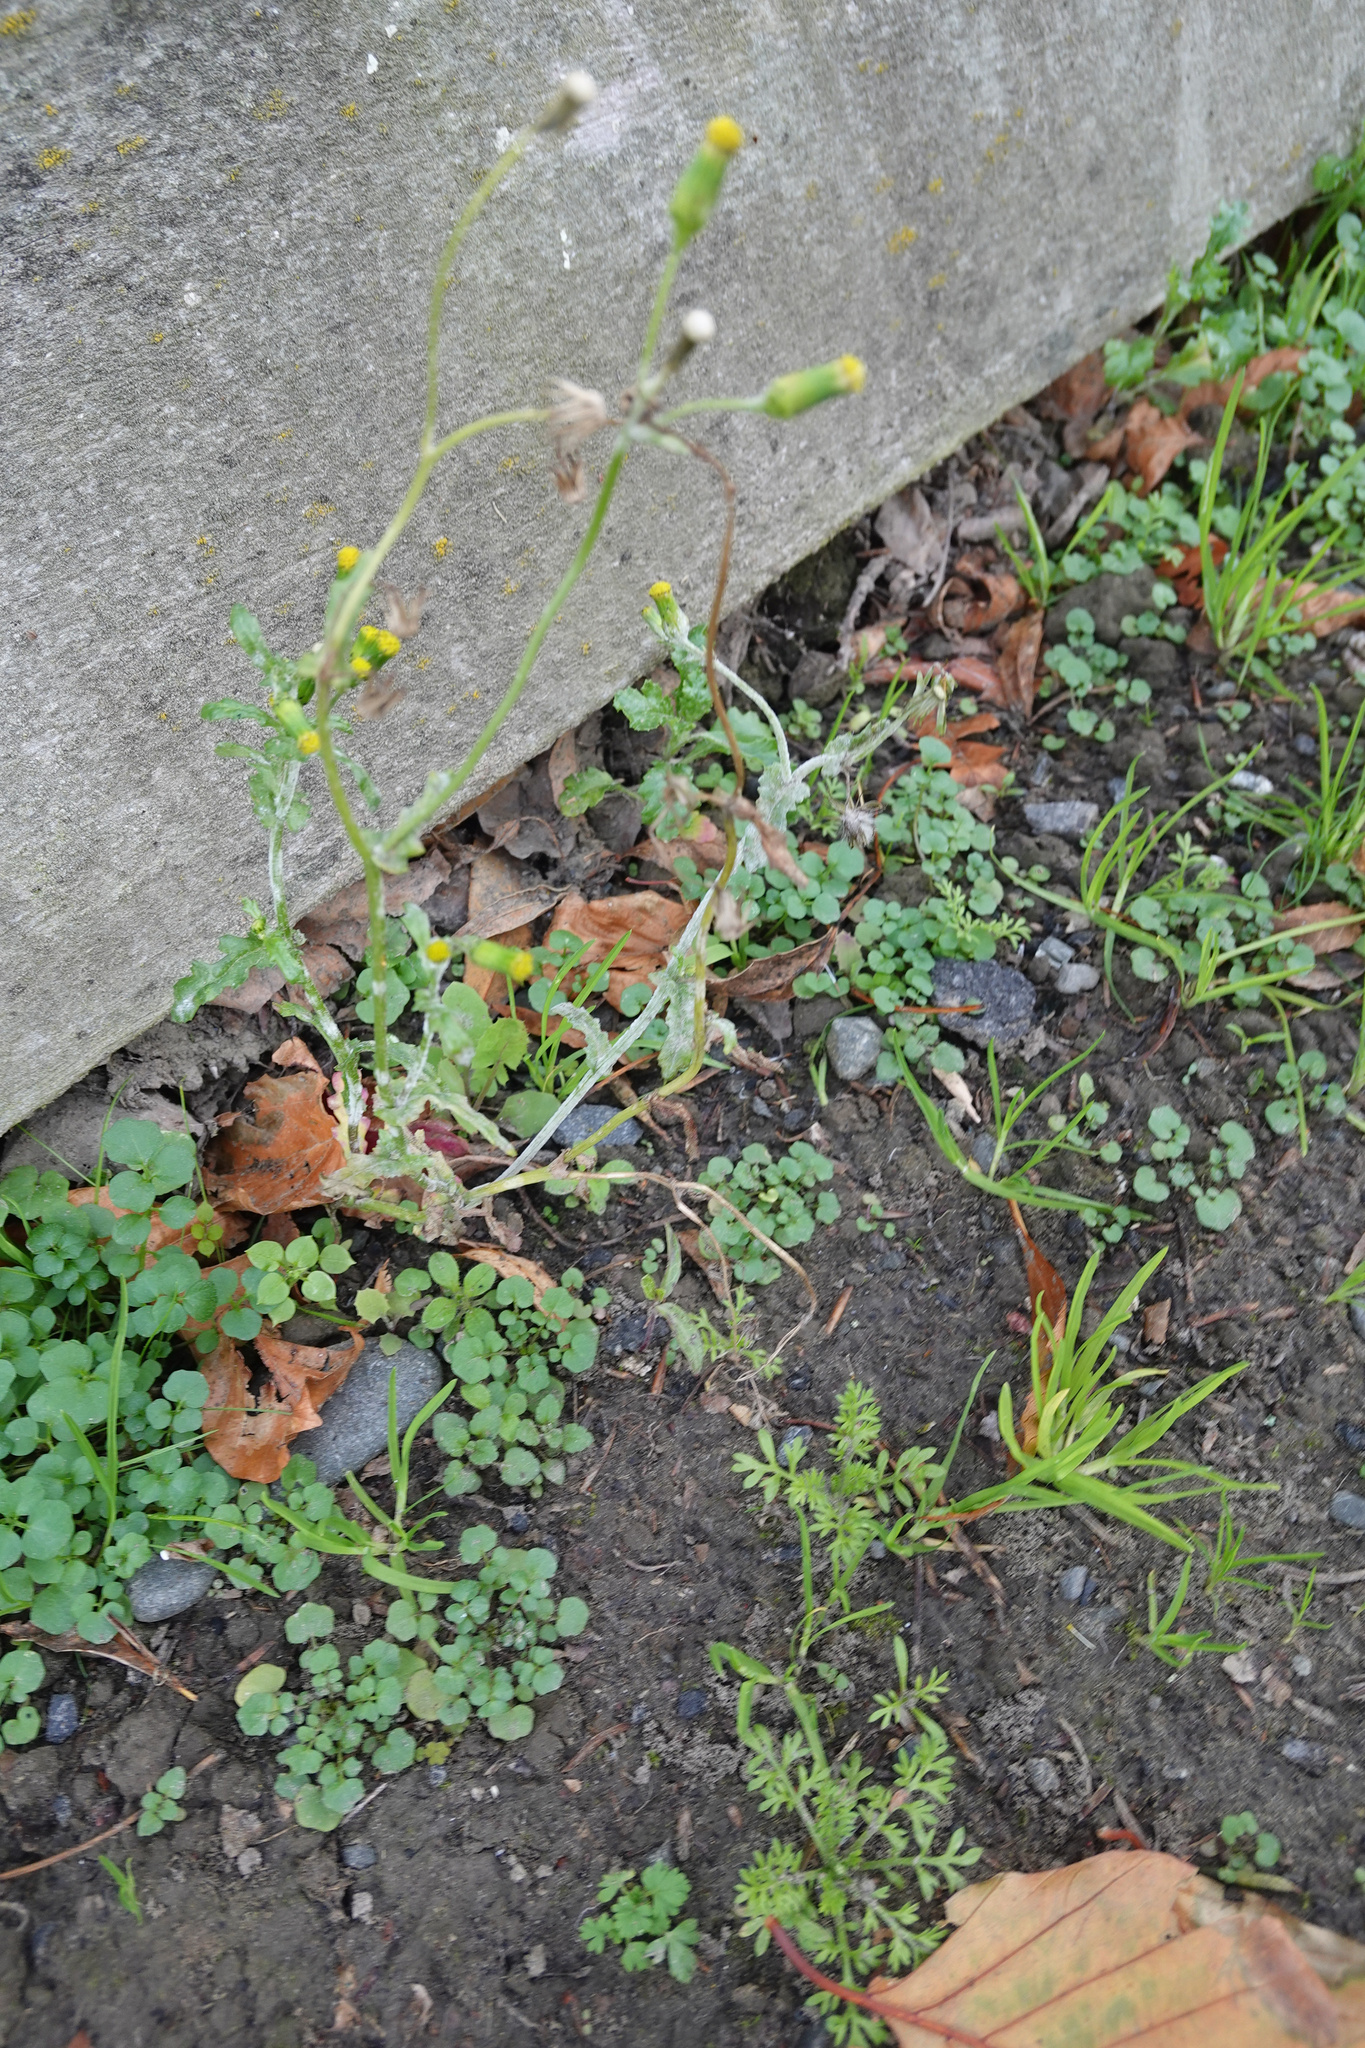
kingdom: Plantae
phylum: Tracheophyta
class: Magnoliopsida
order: Asterales
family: Asteraceae
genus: Senecio
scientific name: Senecio vulgaris
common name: Old-man-in-the-spring
